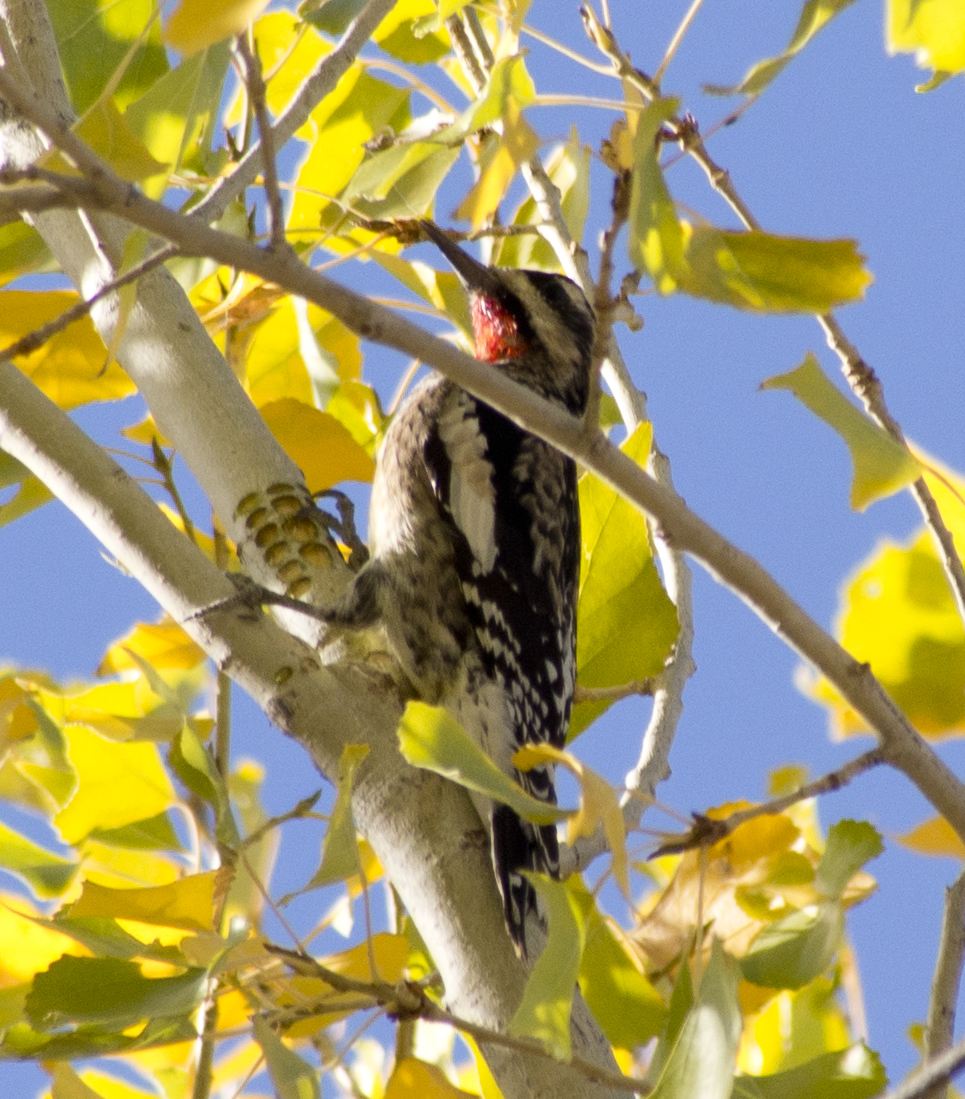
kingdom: Animalia
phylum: Chordata
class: Aves
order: Piciformes
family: Picidae
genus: Sphyrapicus
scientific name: Sphyrapicus nuchalis
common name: Red-naped sapsucker
